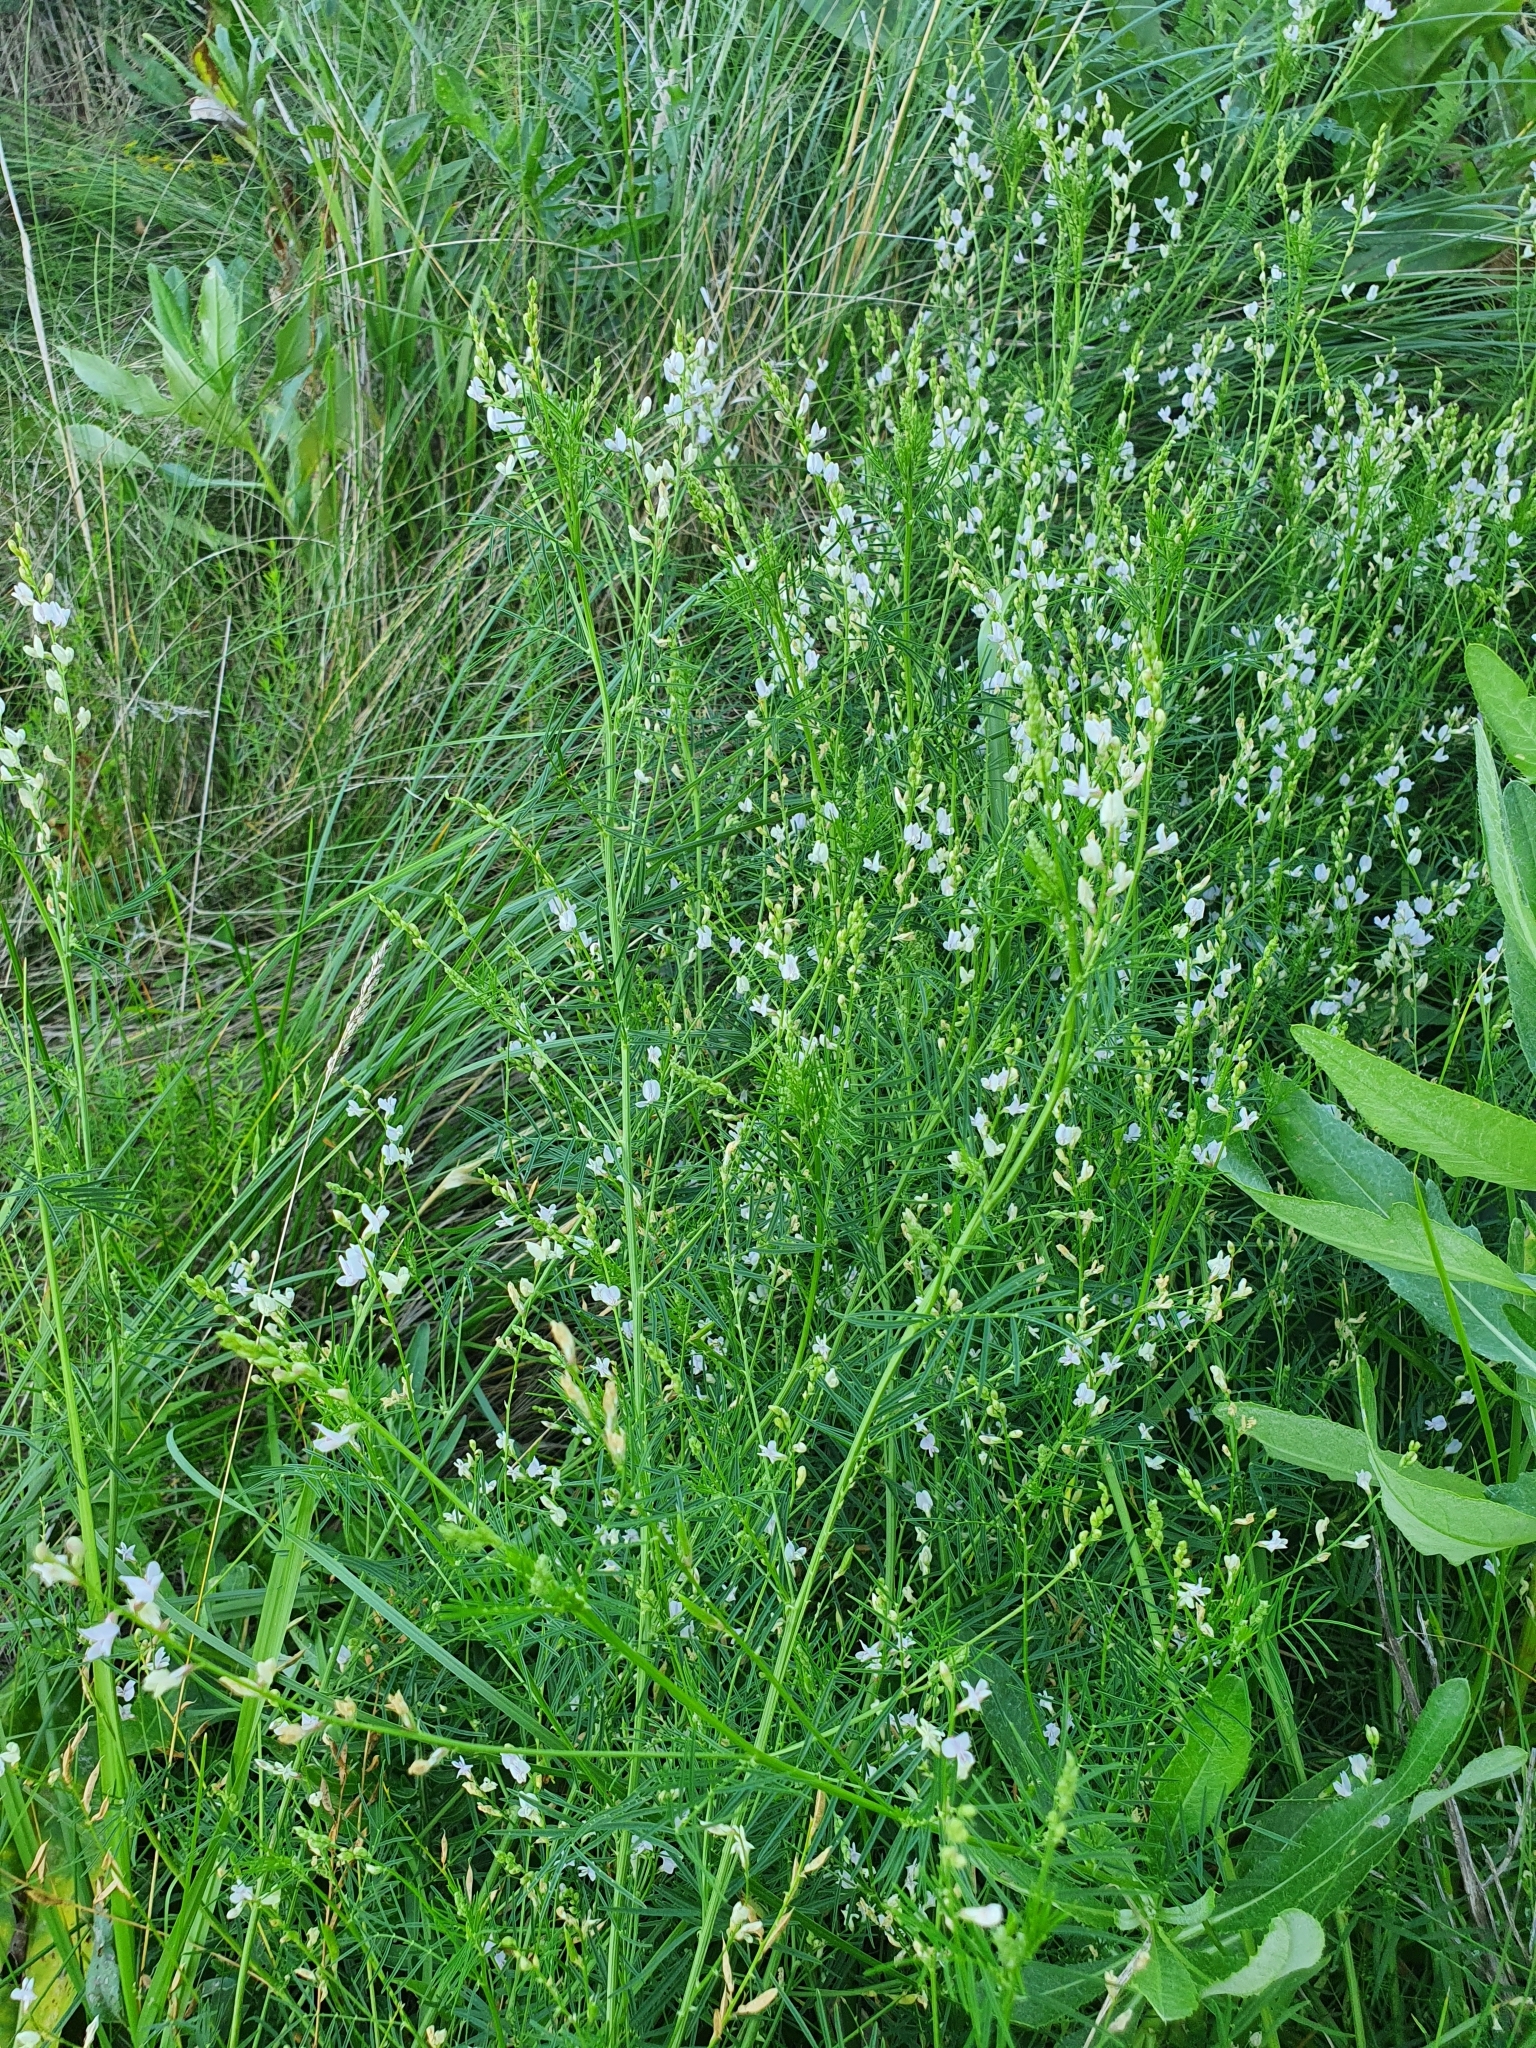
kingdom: Plantae
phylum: Tracheophyta
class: Magnoliopsida
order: Fabales
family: Fabaceae
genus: Astragalus
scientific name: Astragalus sulcatus
